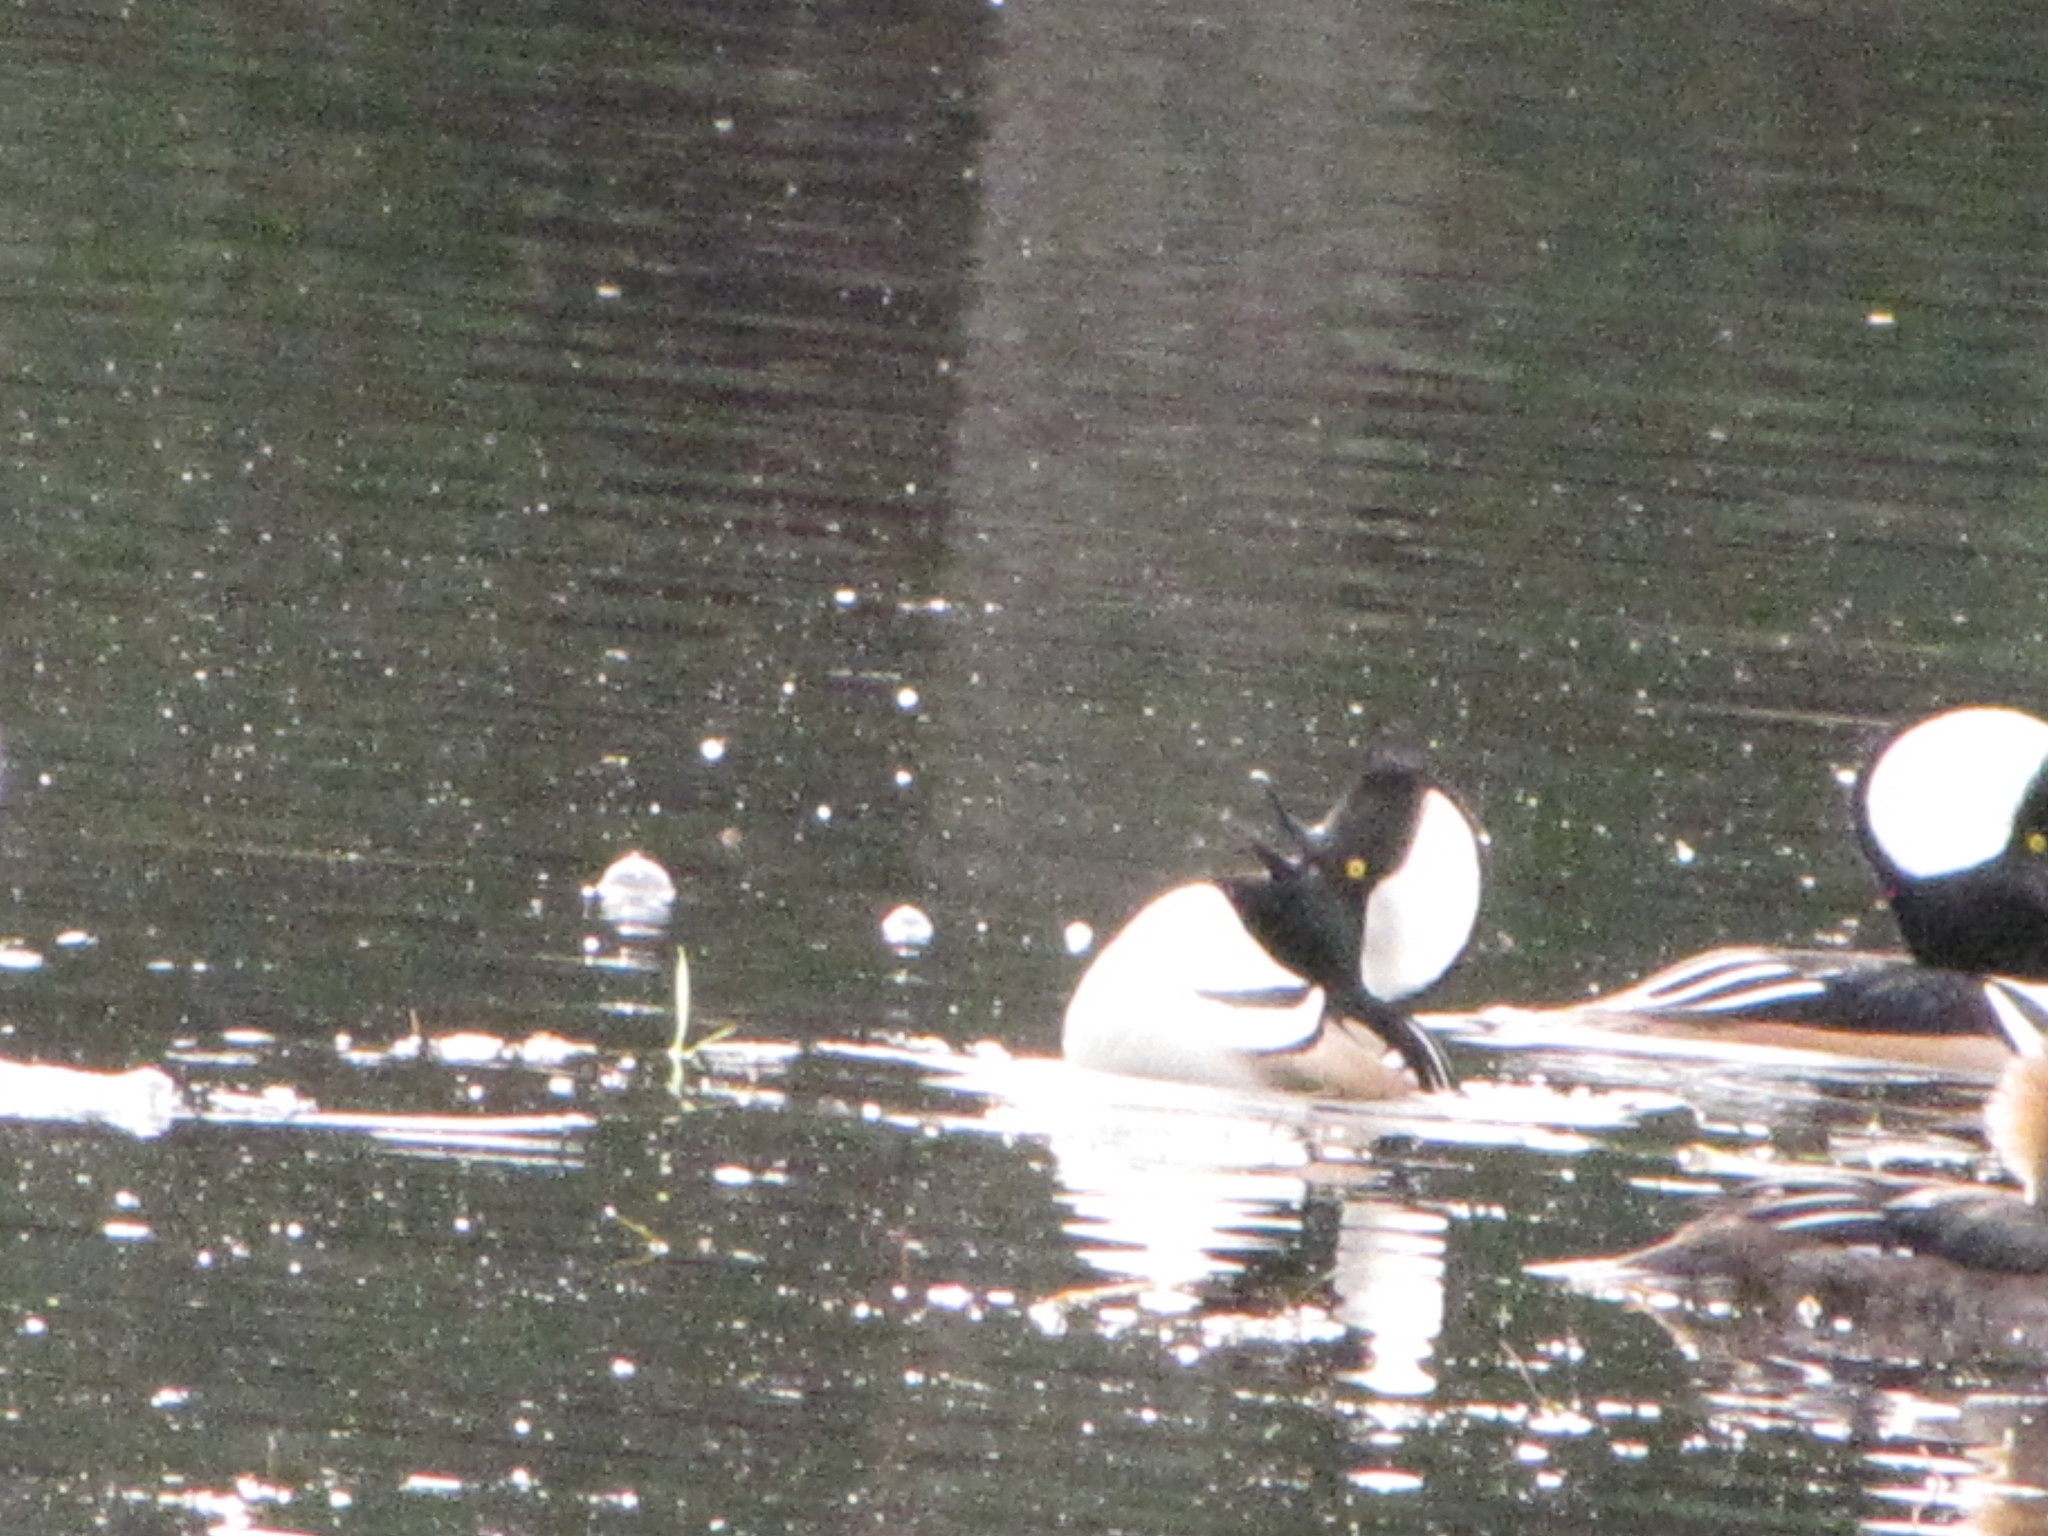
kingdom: Animalia
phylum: Chordata
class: Aves
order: Anseriformes
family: Anatidae
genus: Lophodytes
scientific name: Lophodytes cucullatus
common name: Hooded merganser
